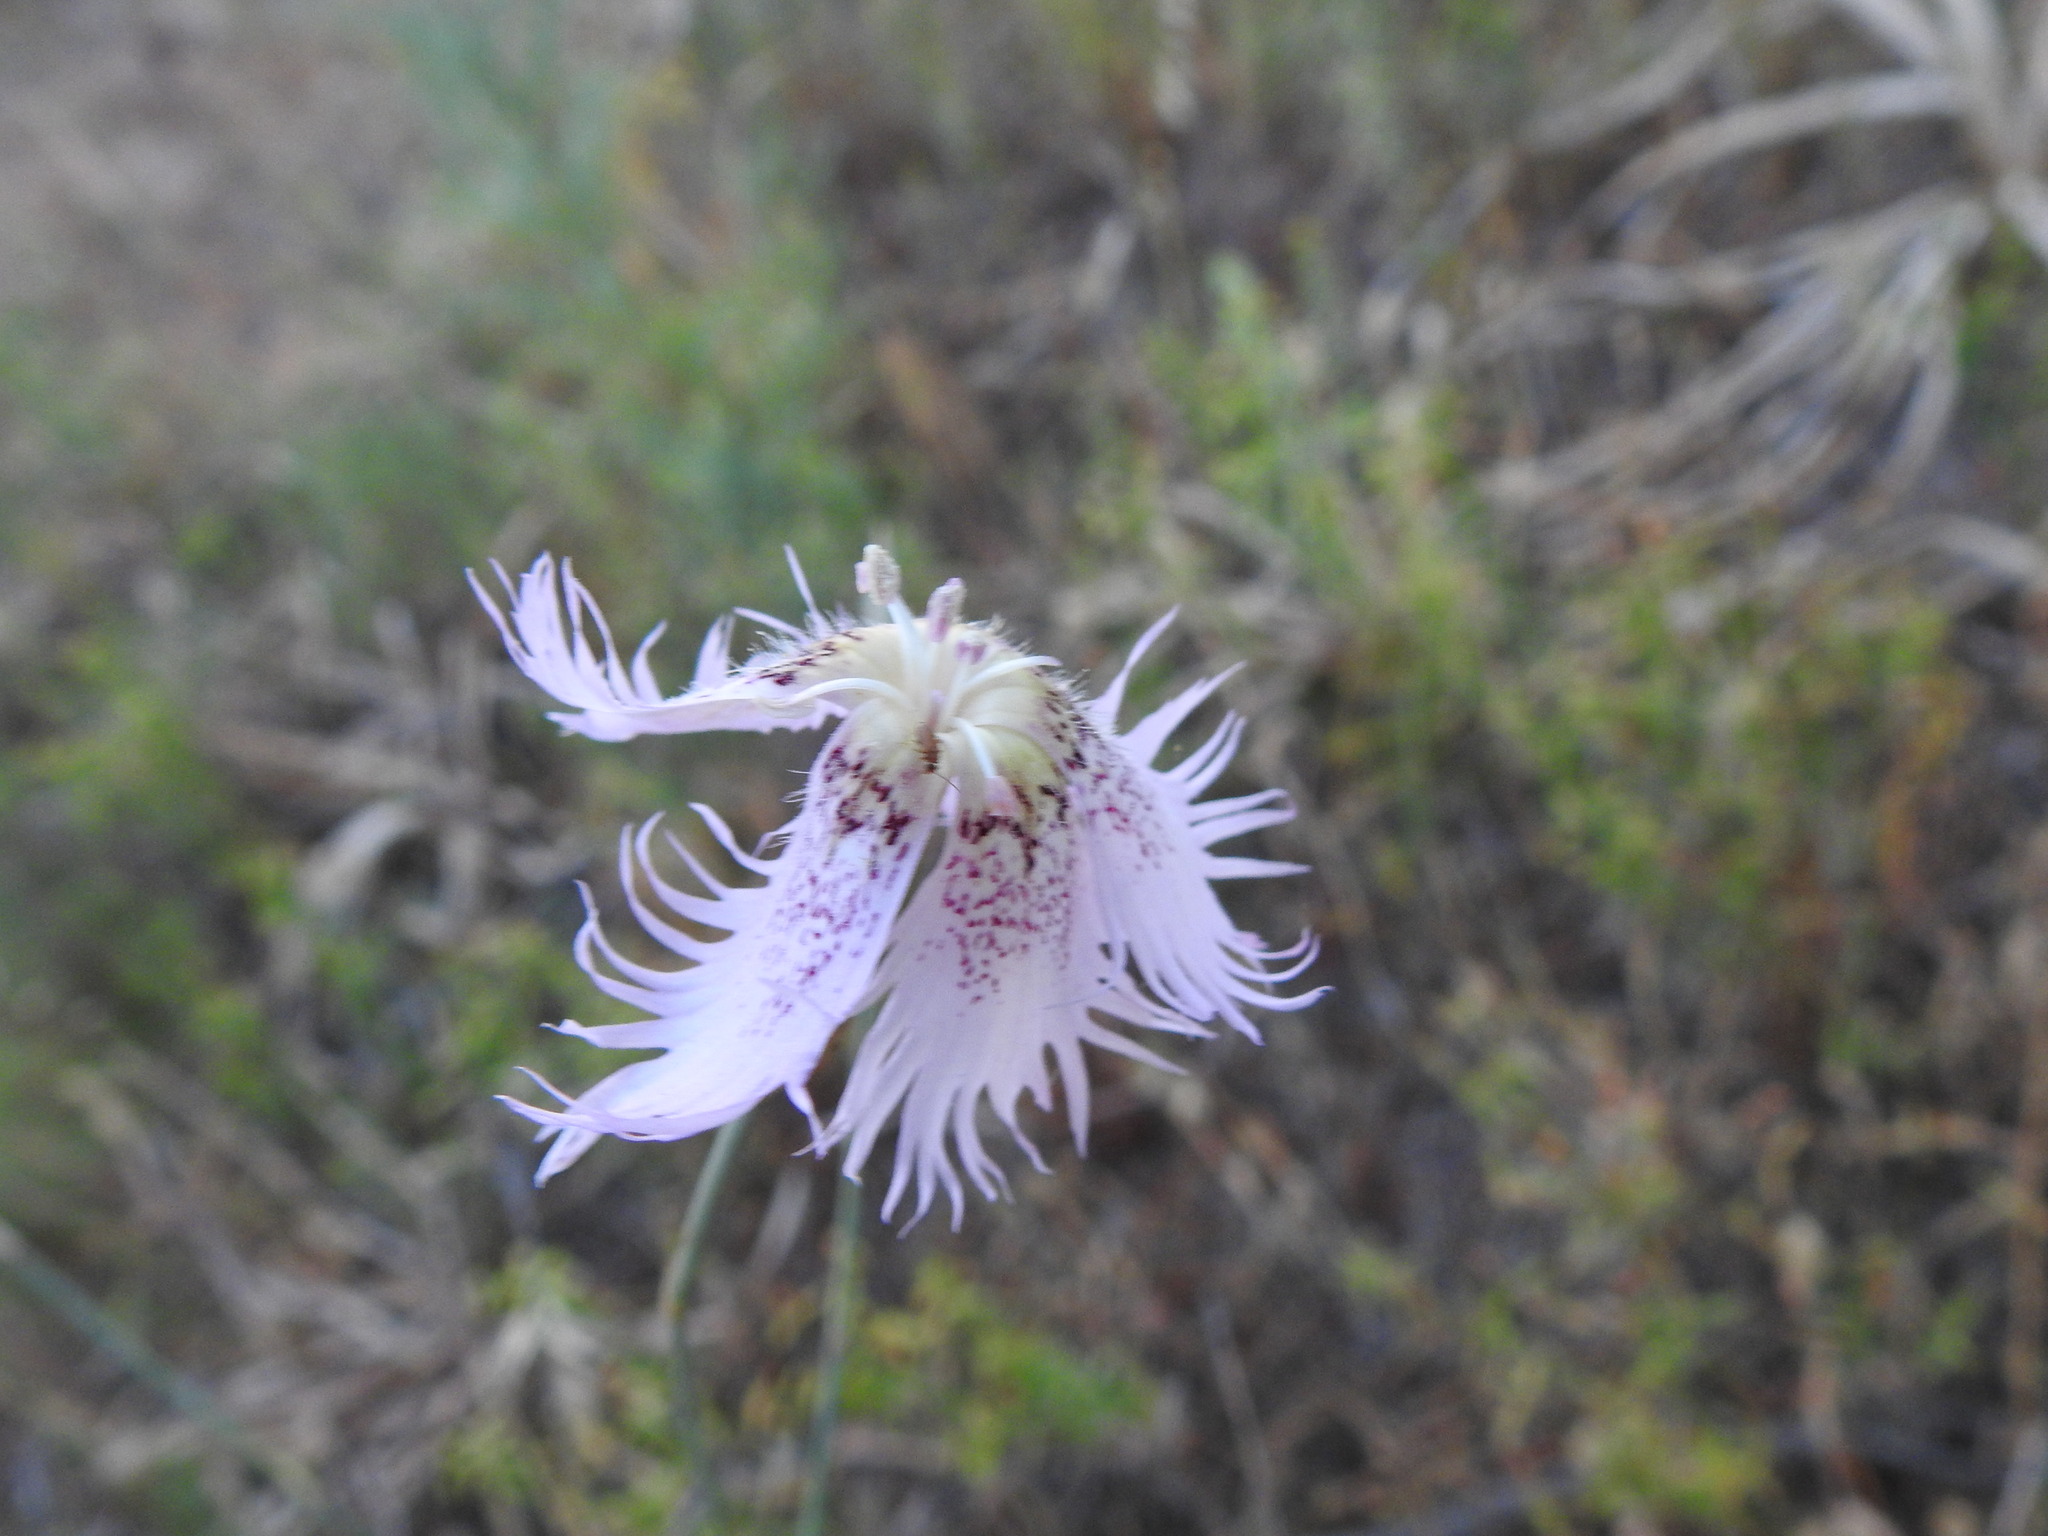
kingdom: Plantae
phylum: Tracheophyta
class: Magnoliopsida
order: Caryophyllales
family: Caryophyllaceae
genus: Dianthus
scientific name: Dianthus broteri
